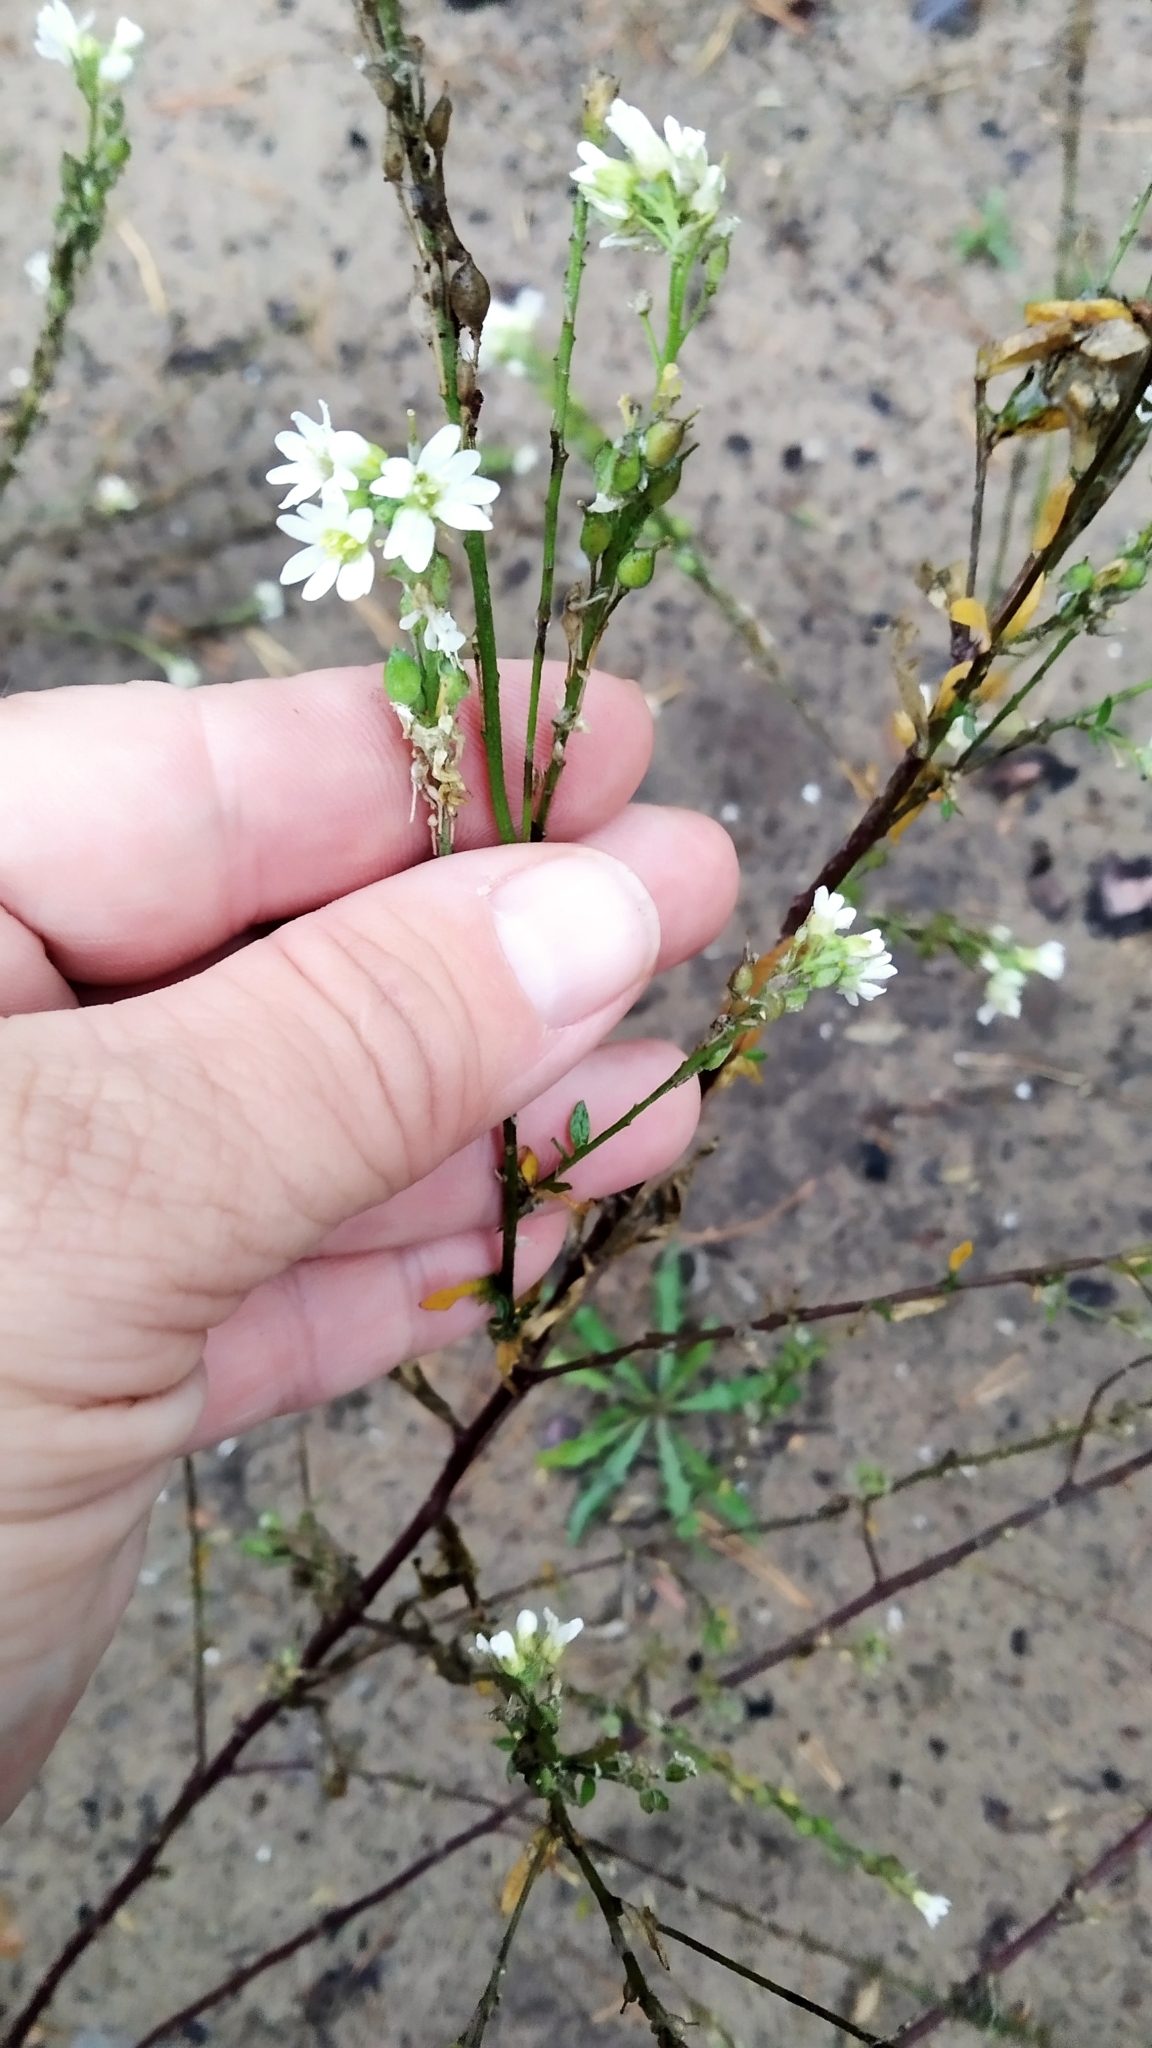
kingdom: Plantae
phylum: Tracheophyta
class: Magnoliopsida
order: Brassicales
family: Brassicaceae
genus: Berteroa
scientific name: Berteroa incana
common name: Hoary alison
